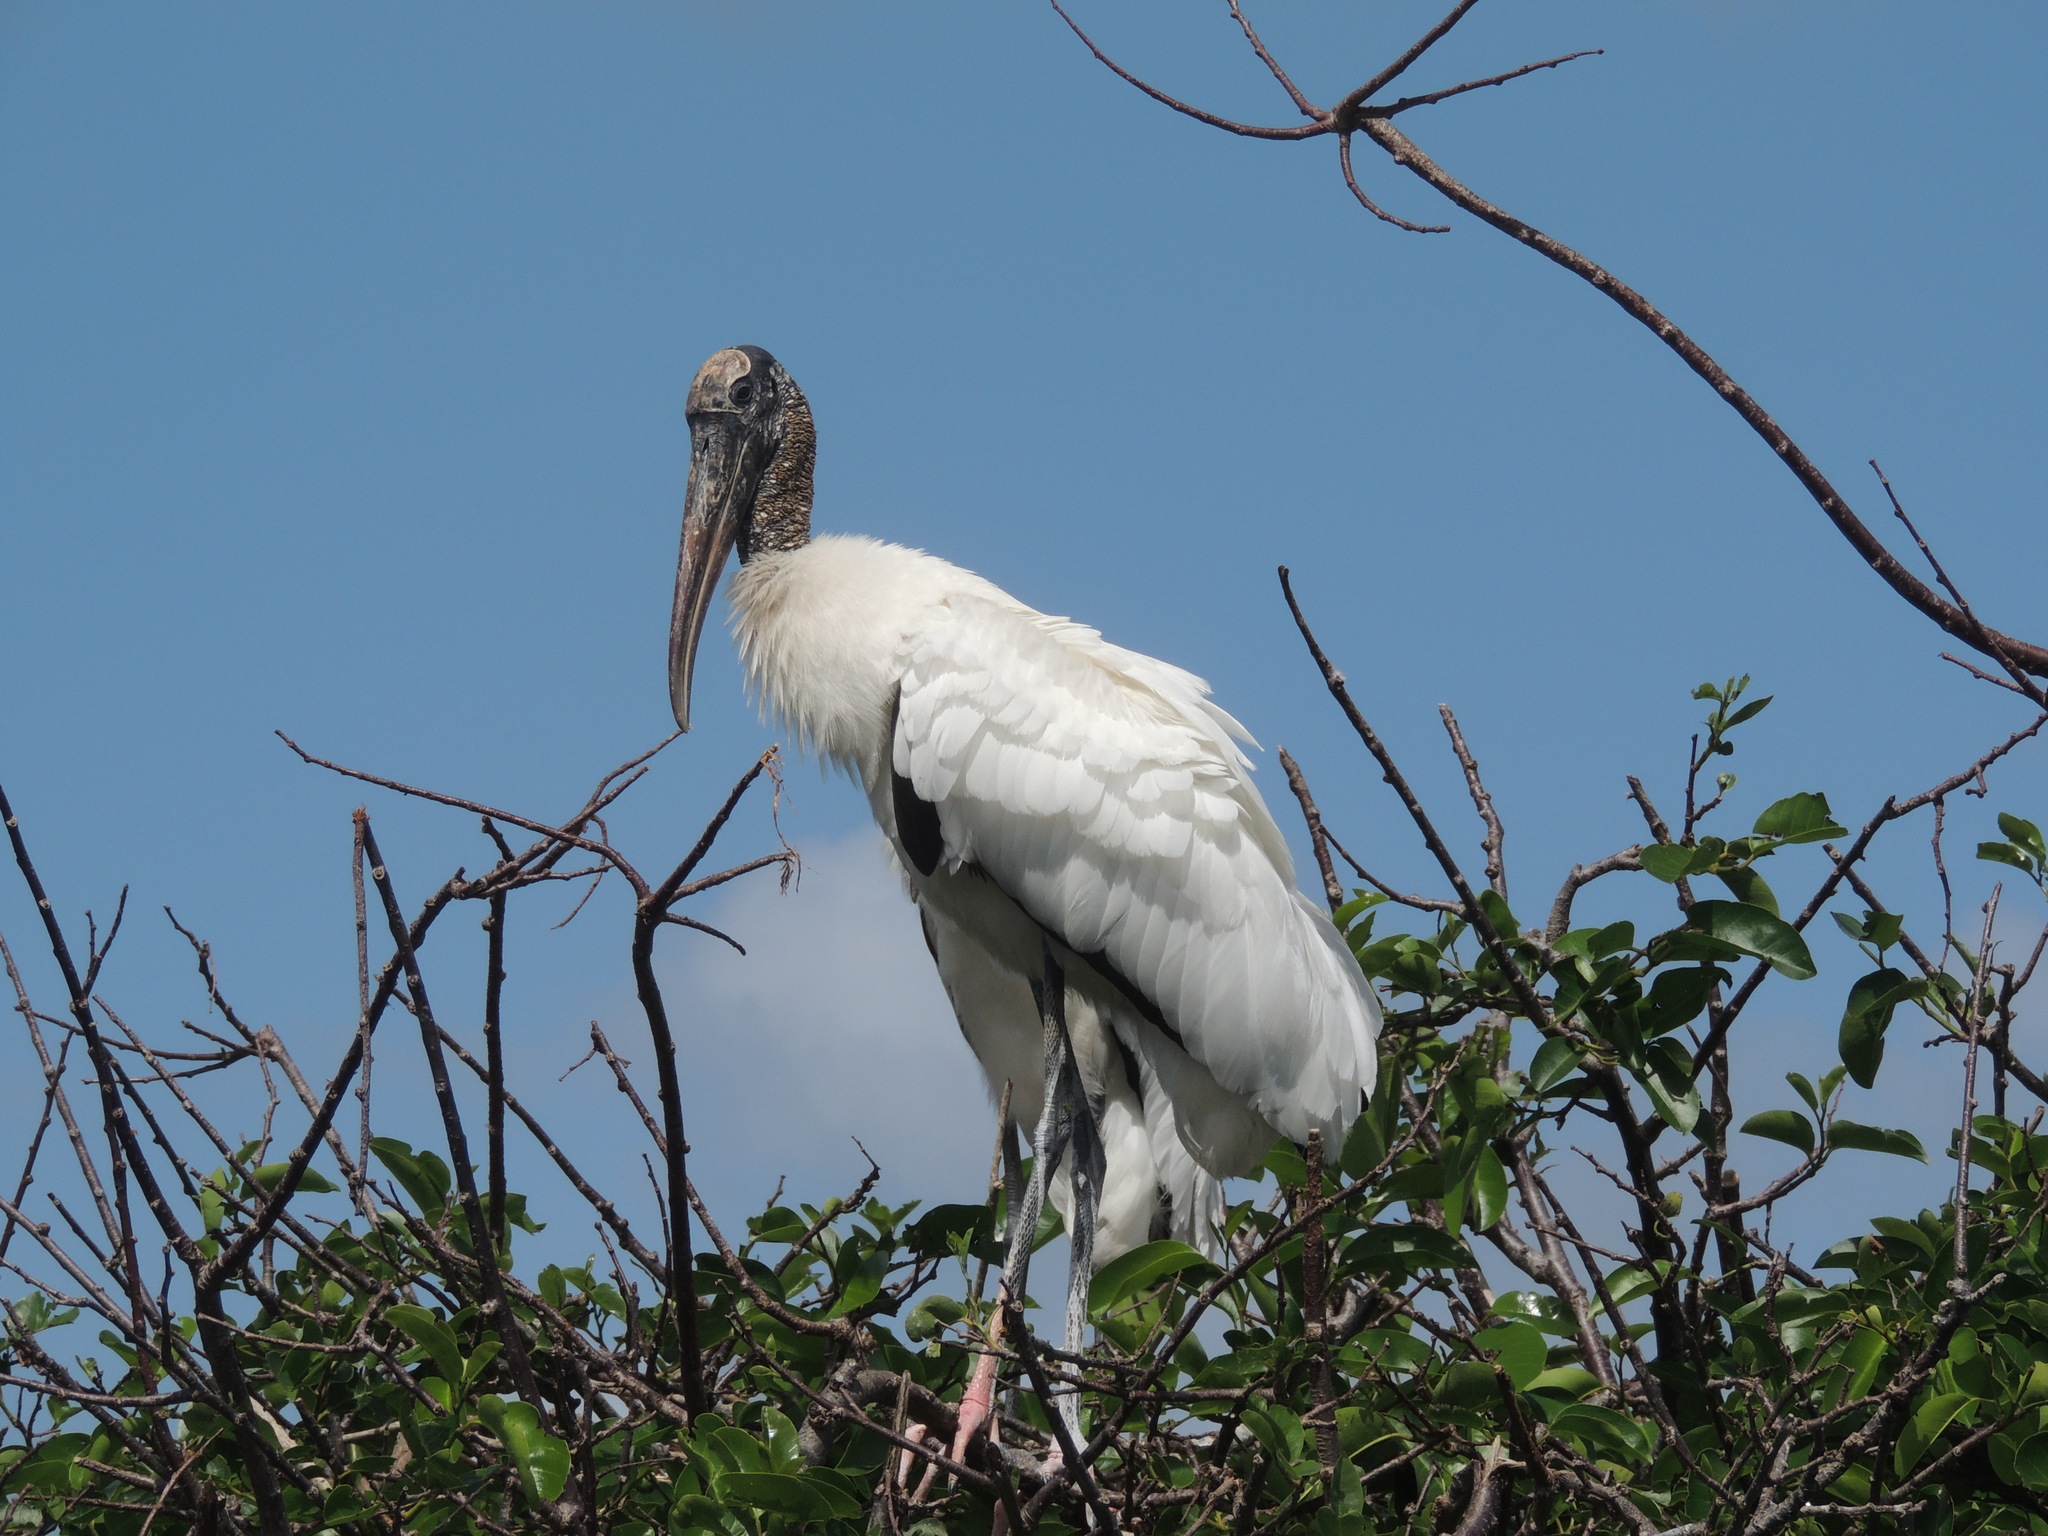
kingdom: Animalia
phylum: Chordata
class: Aves
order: Ciconiiformes
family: Ciconiidae
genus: Mycteria
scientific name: Mycteria americana
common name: Wood stork
